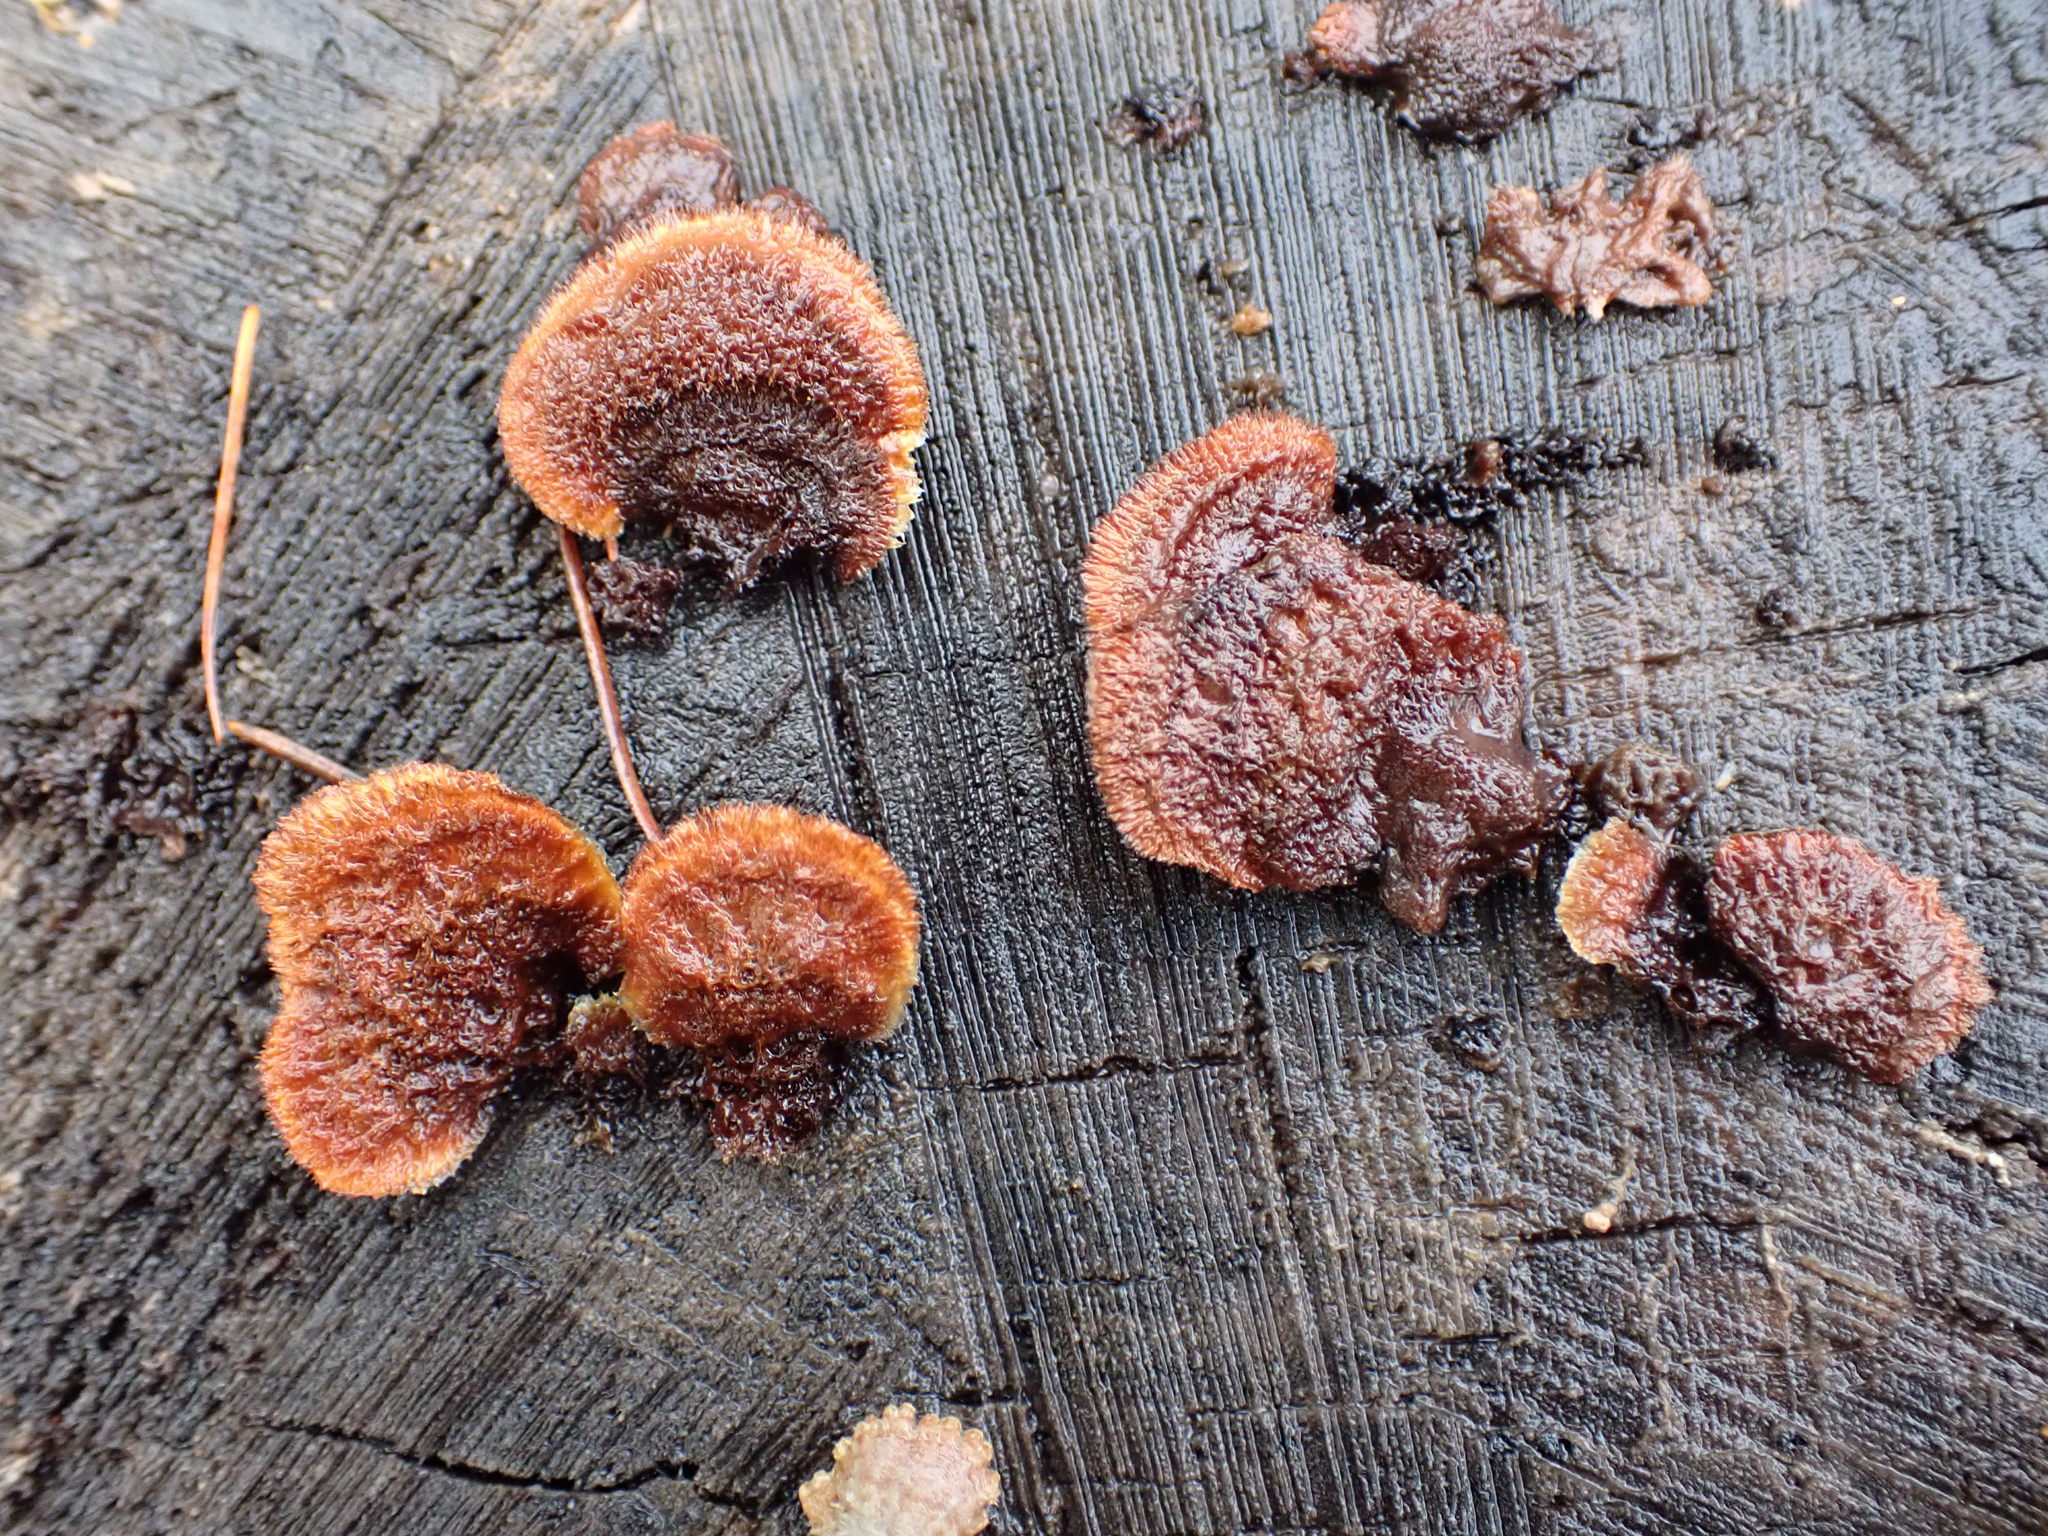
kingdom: Fungi
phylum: Basidiomycota
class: Agaricomycetes
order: Gloeophyllales
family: Gloeophyllaceae
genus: Gloeophyllum
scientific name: Gloeophyllum sepiarium
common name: Conifer mazegill
